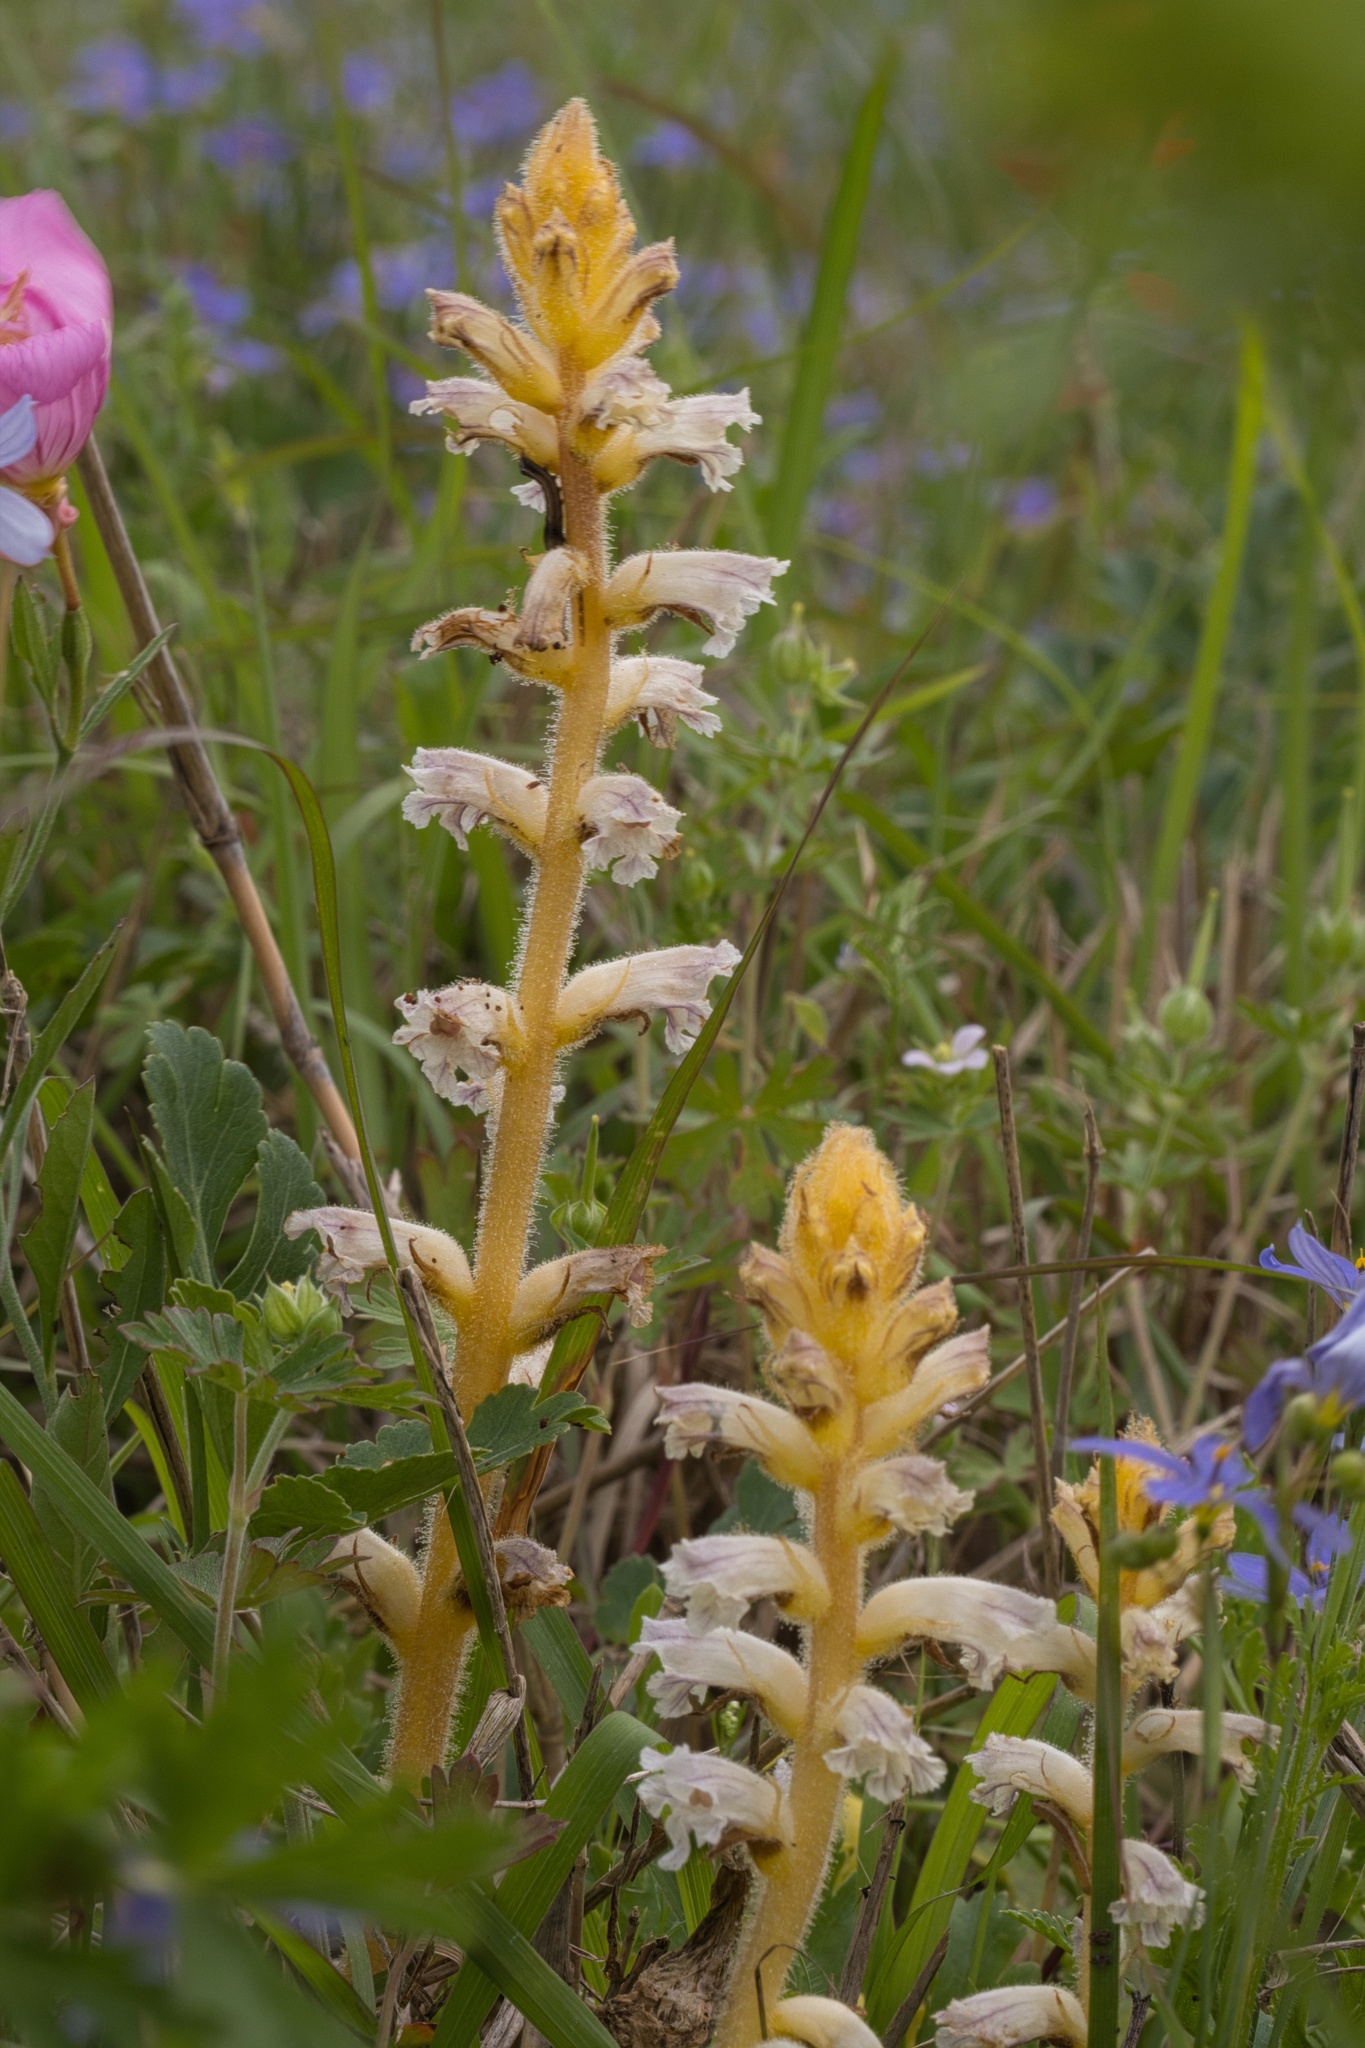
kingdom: Plantae
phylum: Tracheophyta
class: Magnoliopsida
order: Lamiales
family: Orobanchaceae
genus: Orobanche
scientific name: Orobanche minor
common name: Common broomrape
